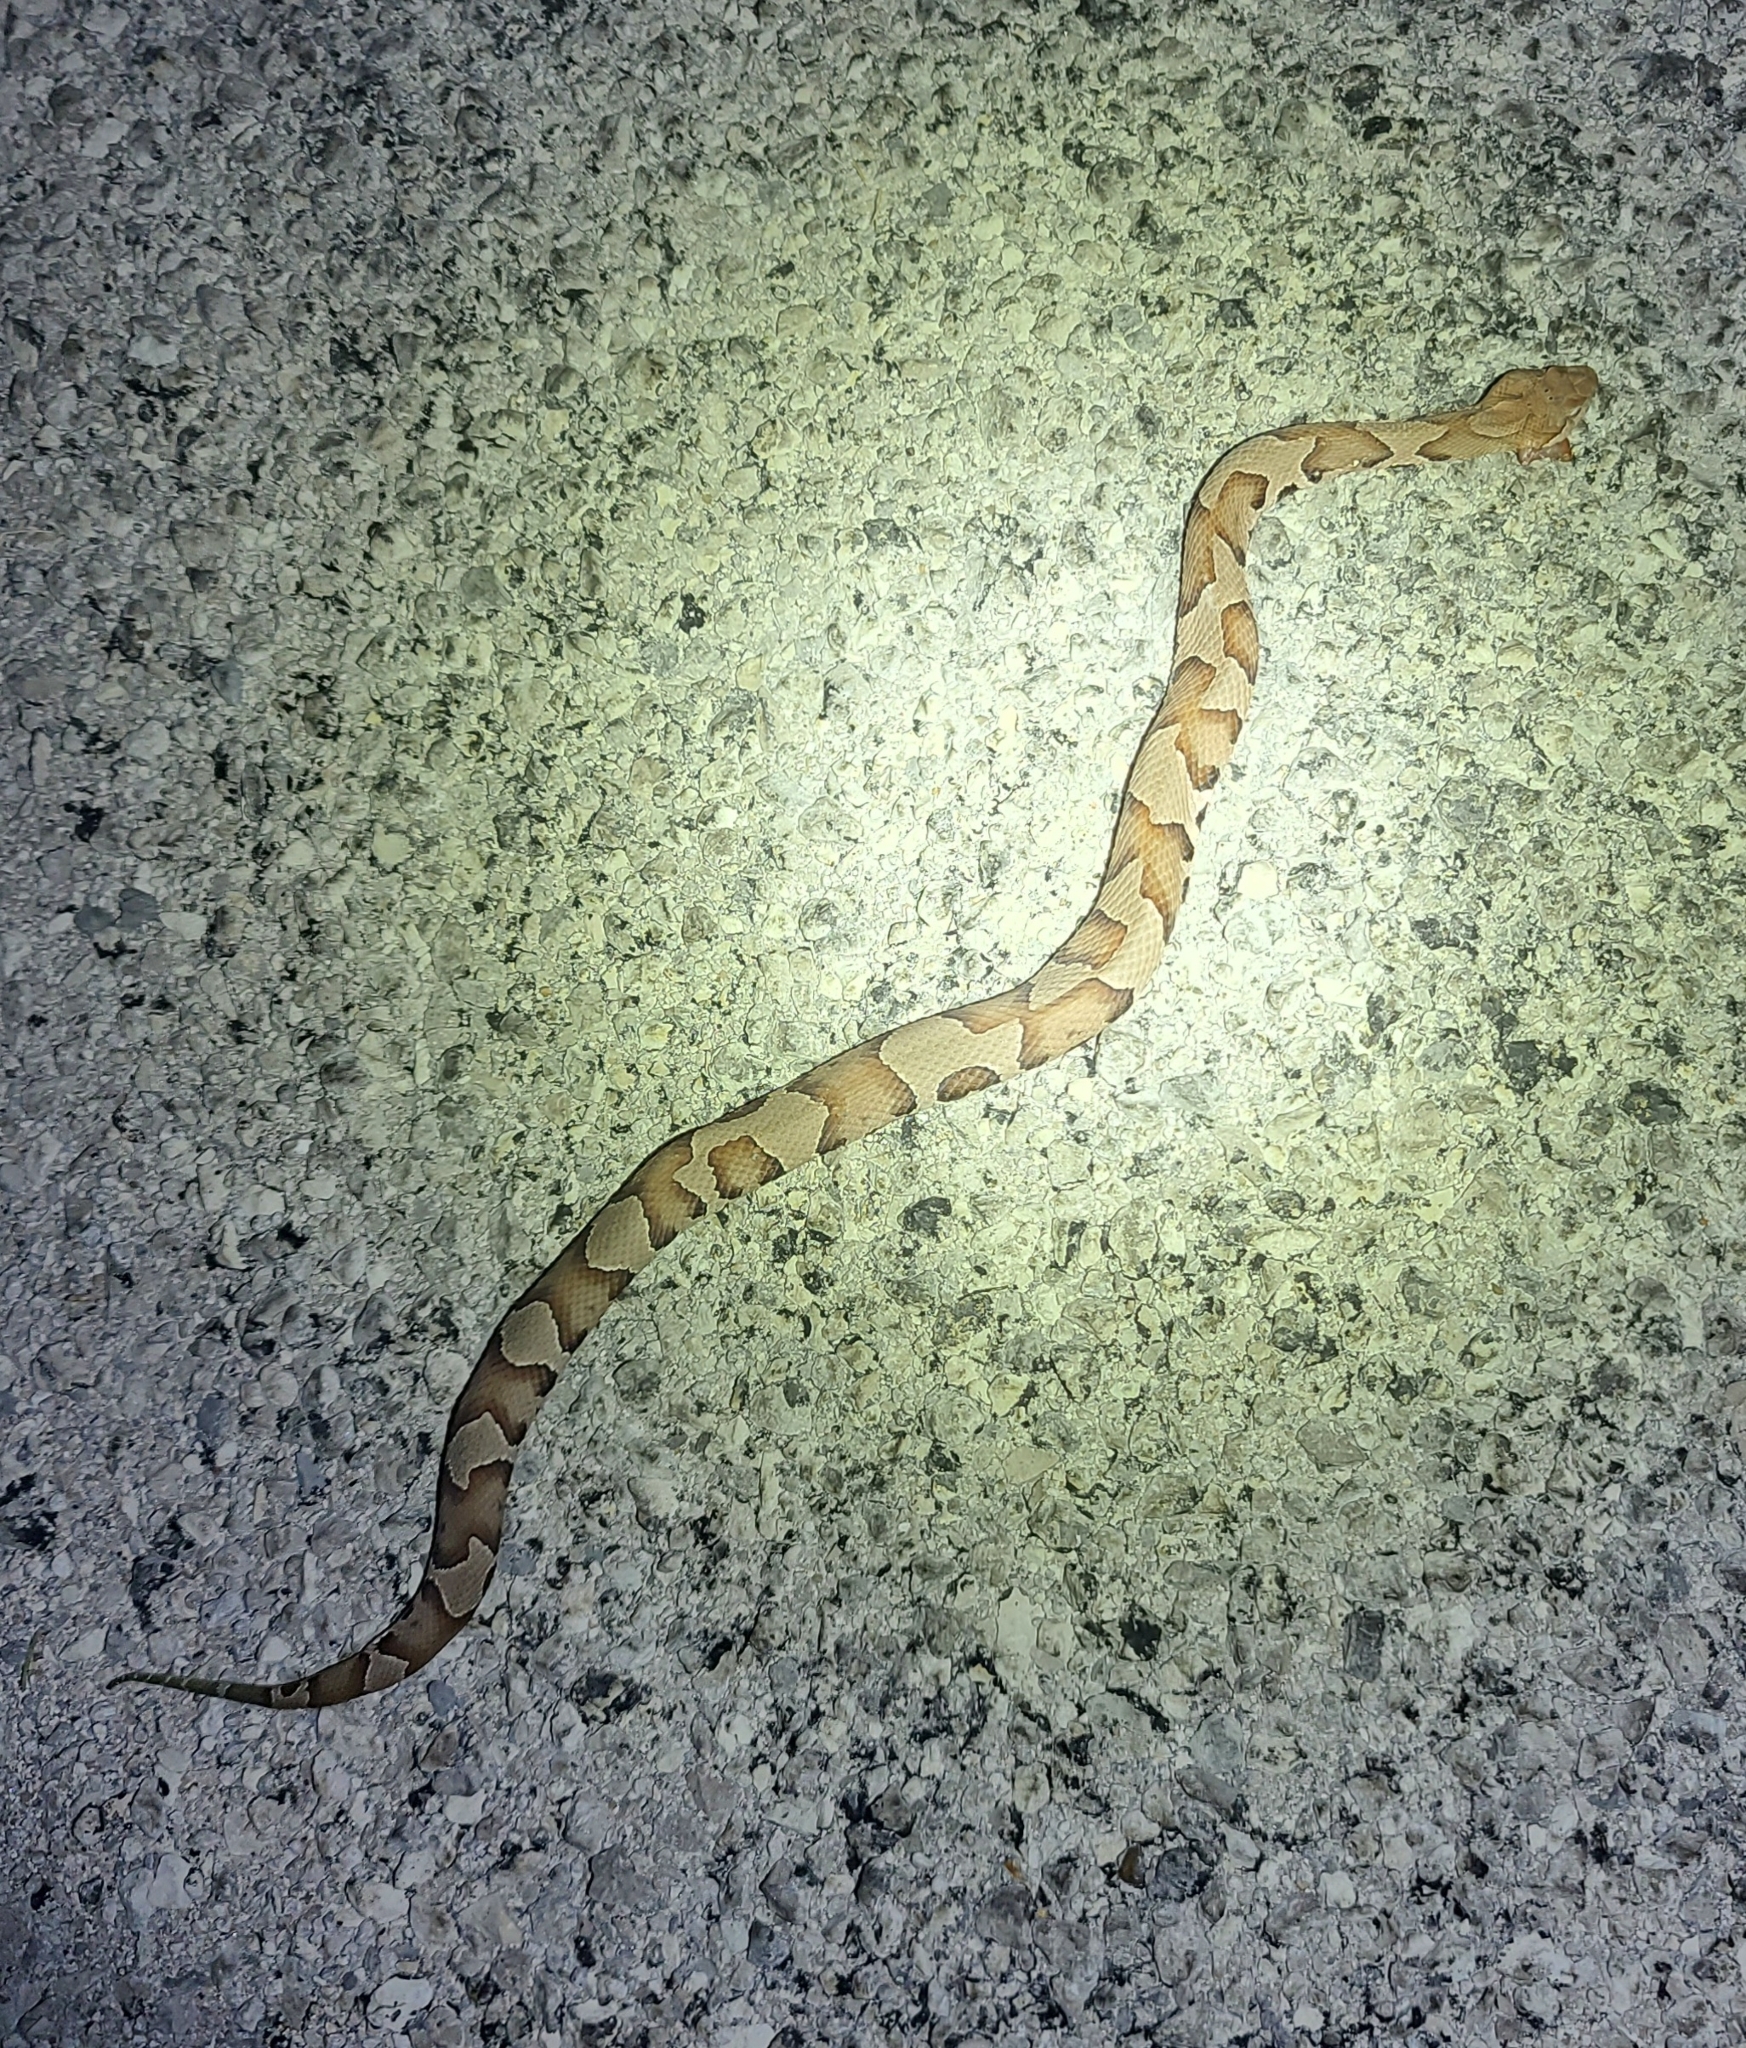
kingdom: Animalia
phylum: Chordata
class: Squamata
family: Viperidae
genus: Agkistrodon
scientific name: Agkistrodon contortrix
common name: Northern copperhead
